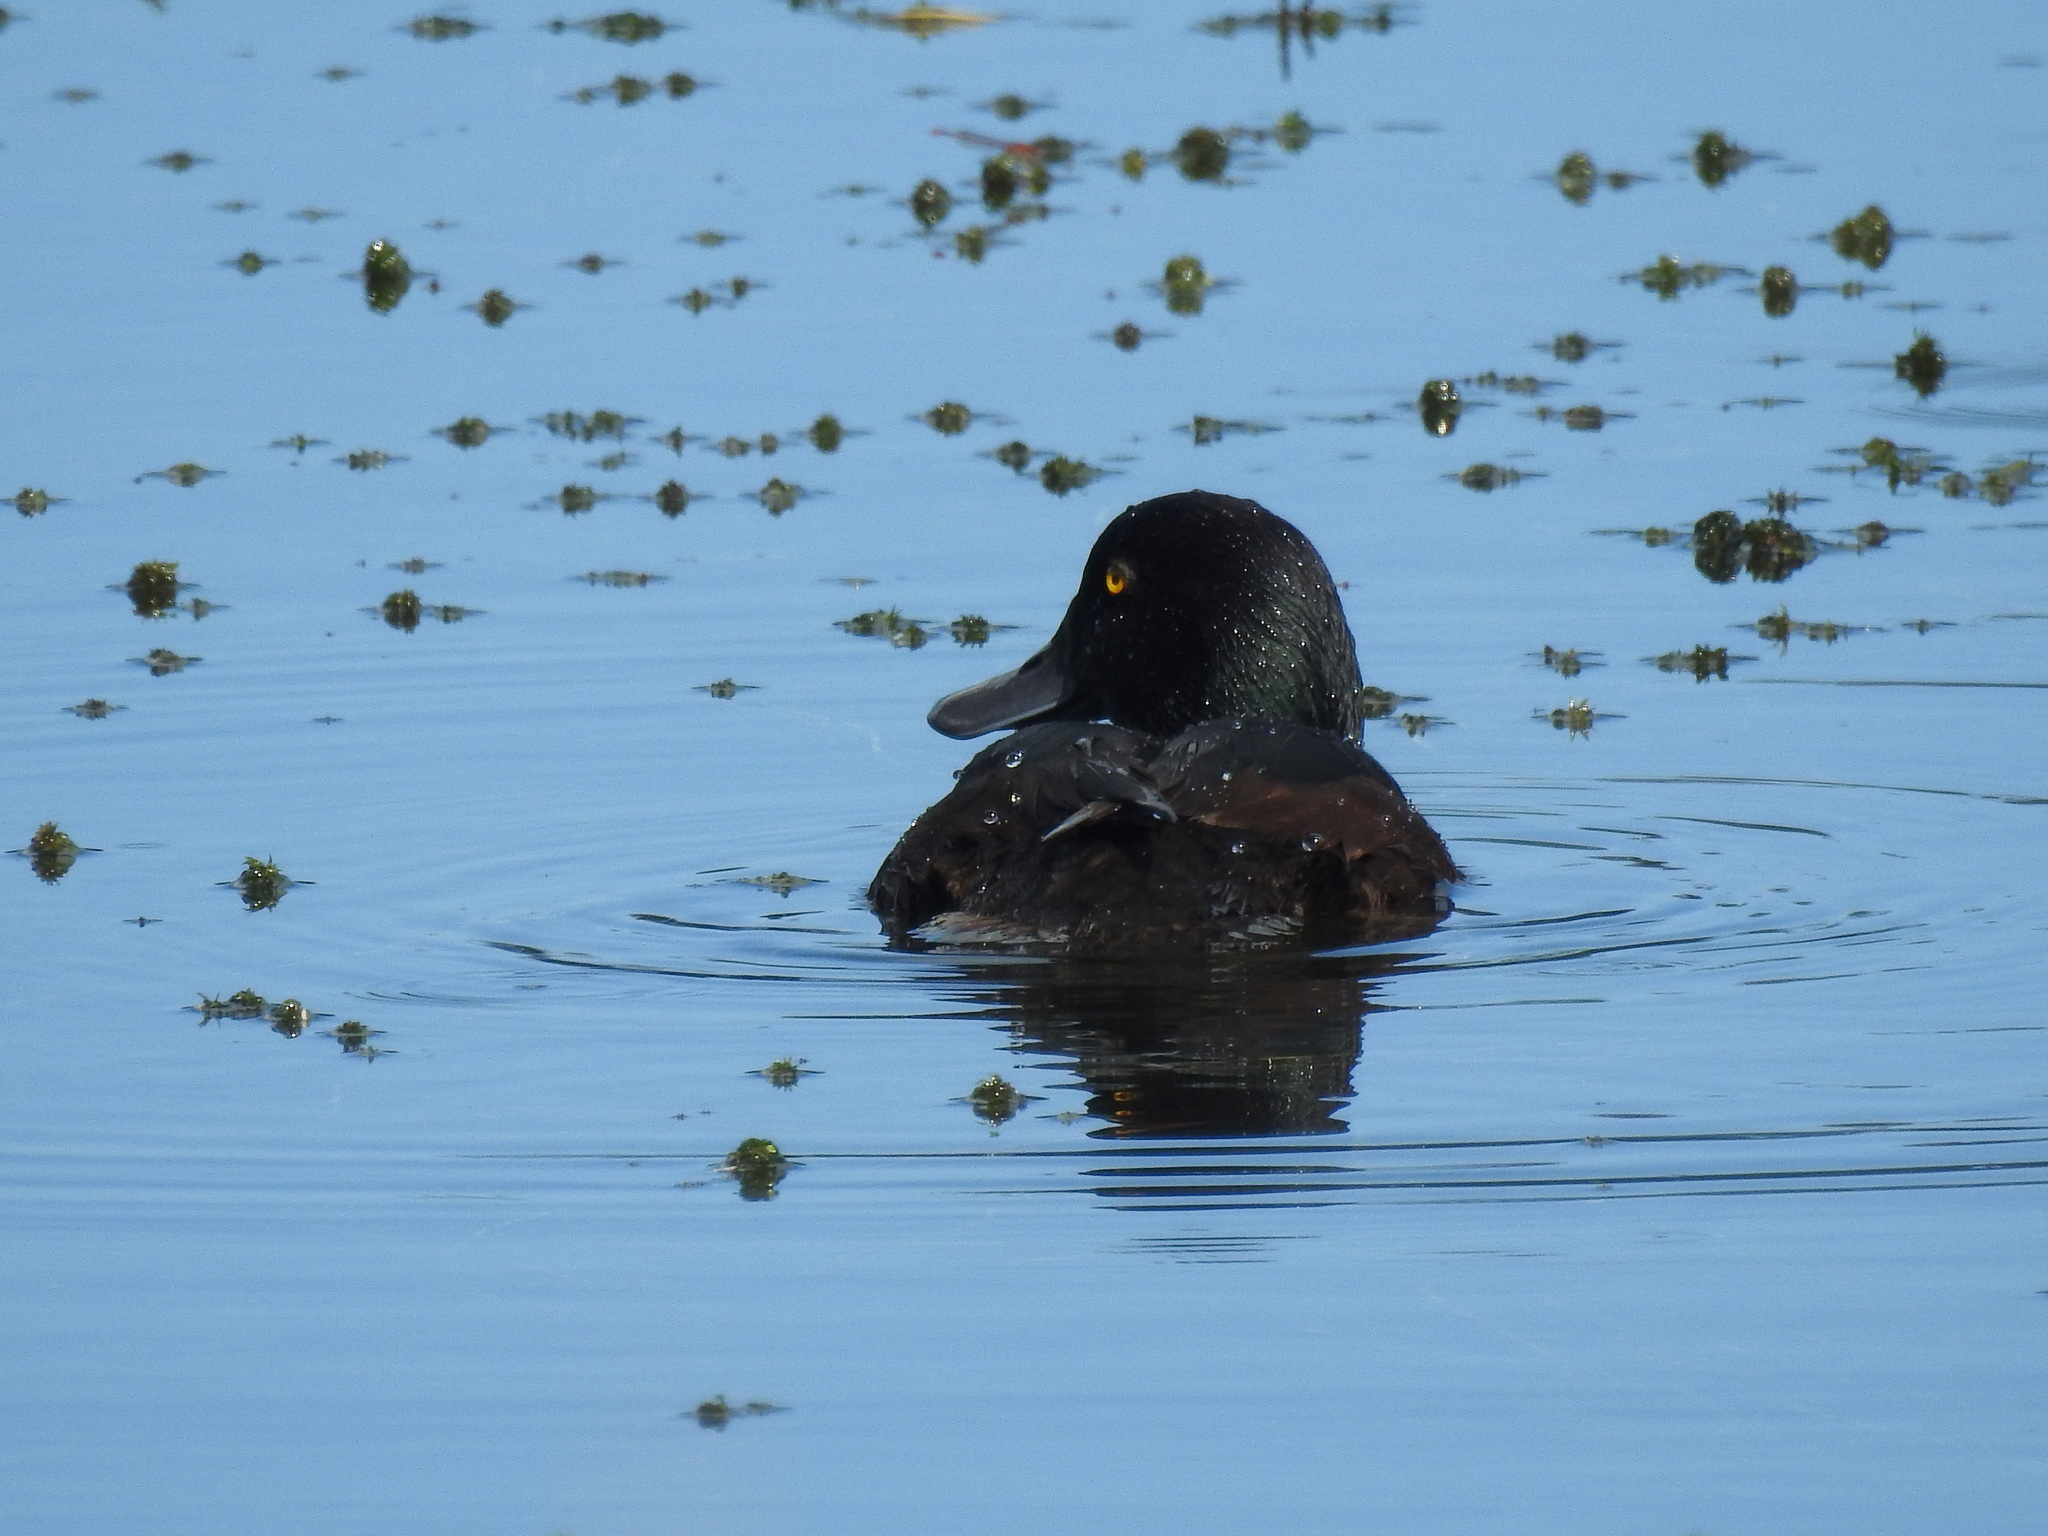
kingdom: Animalia
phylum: Chordata
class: Aves
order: Anseriformes
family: Anatidae
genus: Aythya
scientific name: Aythya novaeseelandiae
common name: New zealand scaup
